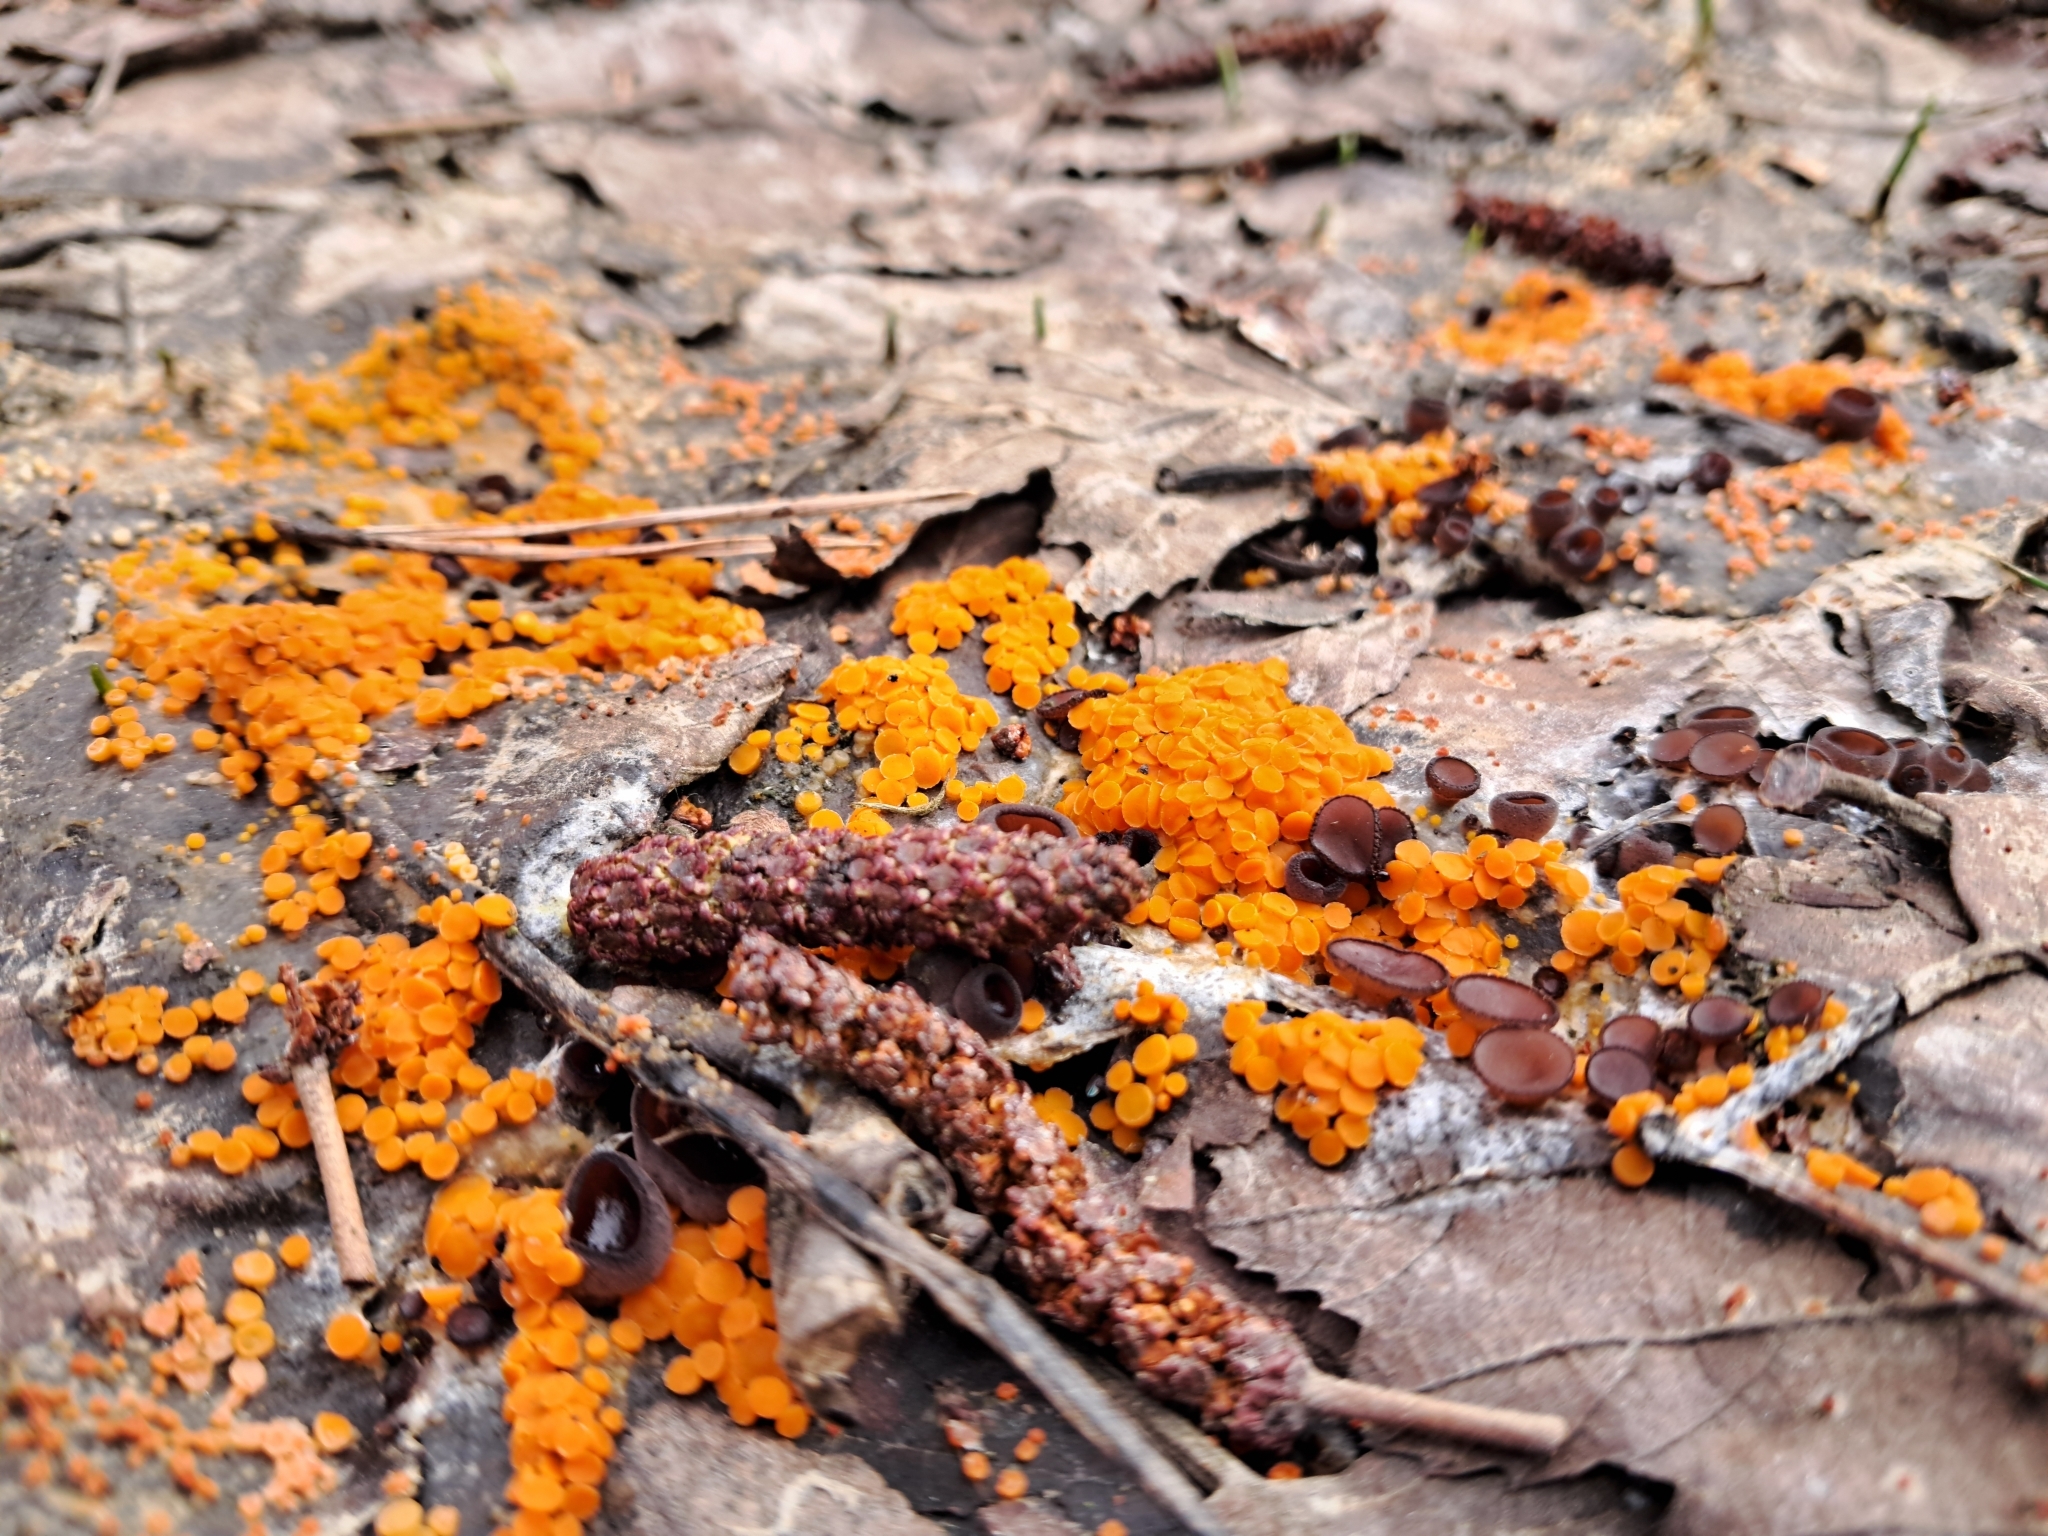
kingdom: Fungi
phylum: Ascomycota
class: Pezizomycetes
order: Pezizales
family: Pyronemataceae
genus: Byssonectria
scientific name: Byssonectria terrestris
